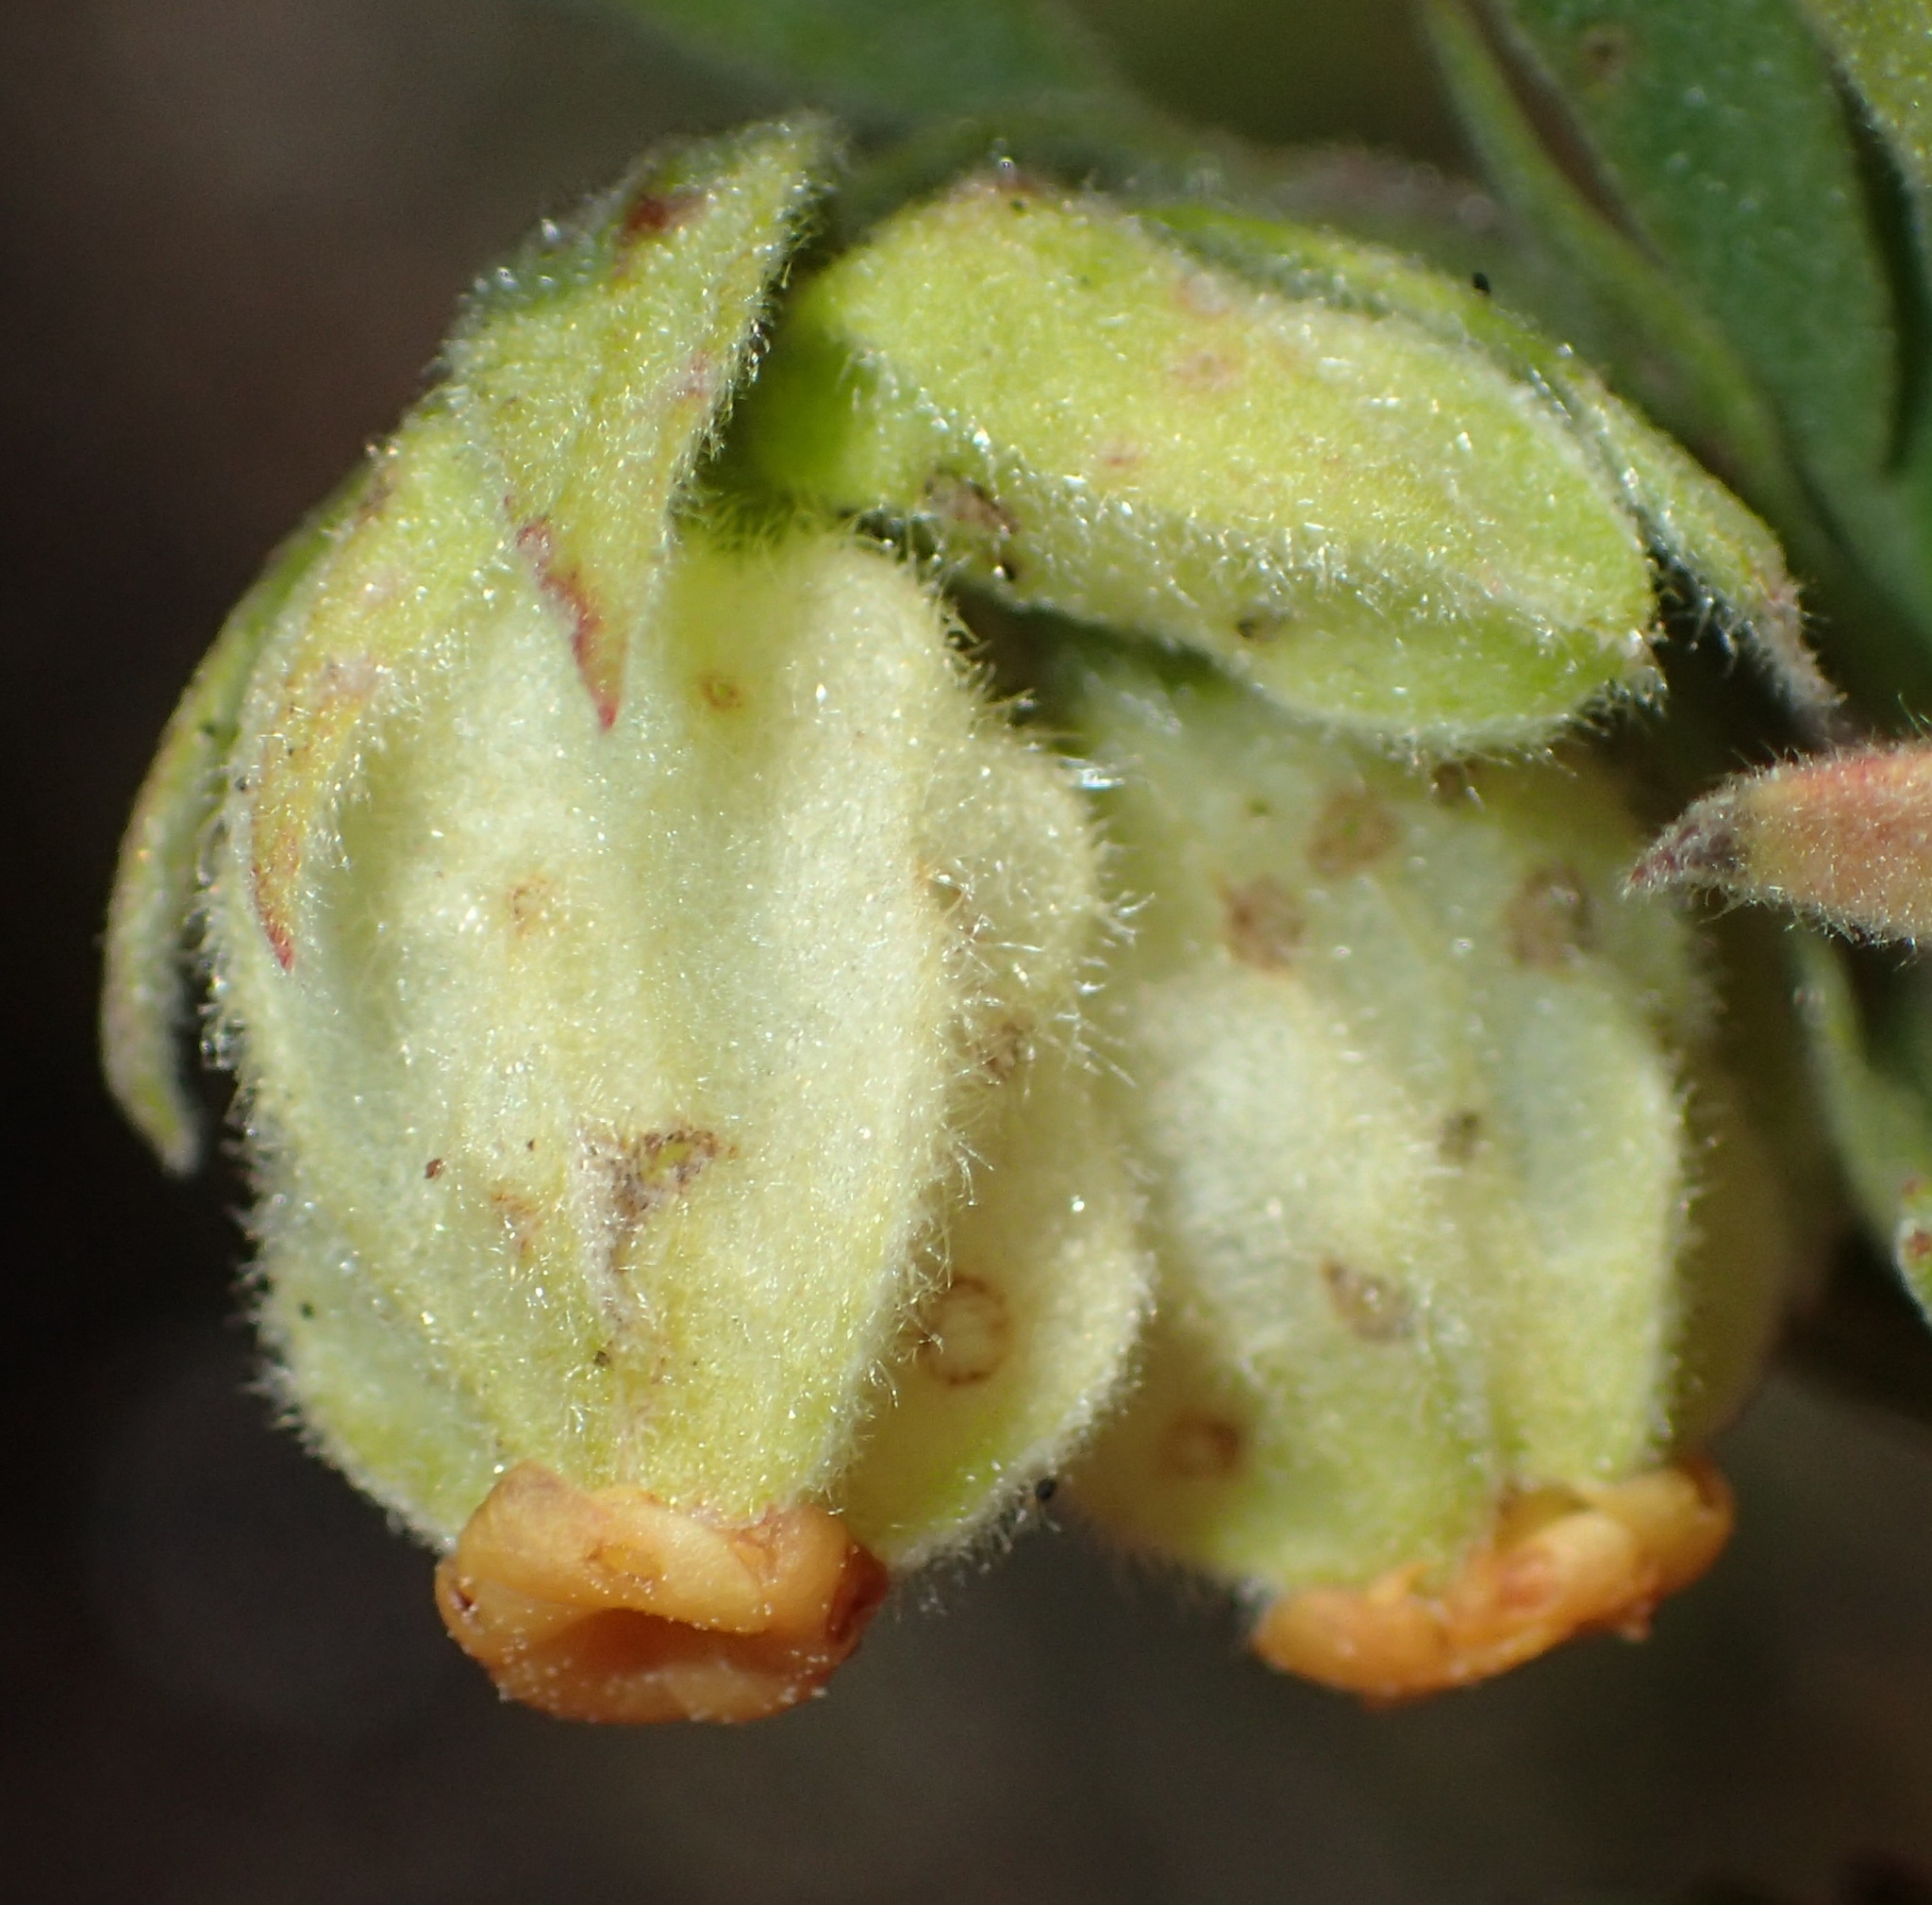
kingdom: Plantae
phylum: Tracheophyta
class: Magnoliopsida
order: Malvales
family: Malvaceae
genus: Hermannia
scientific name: Hermannia hyssopifolia
